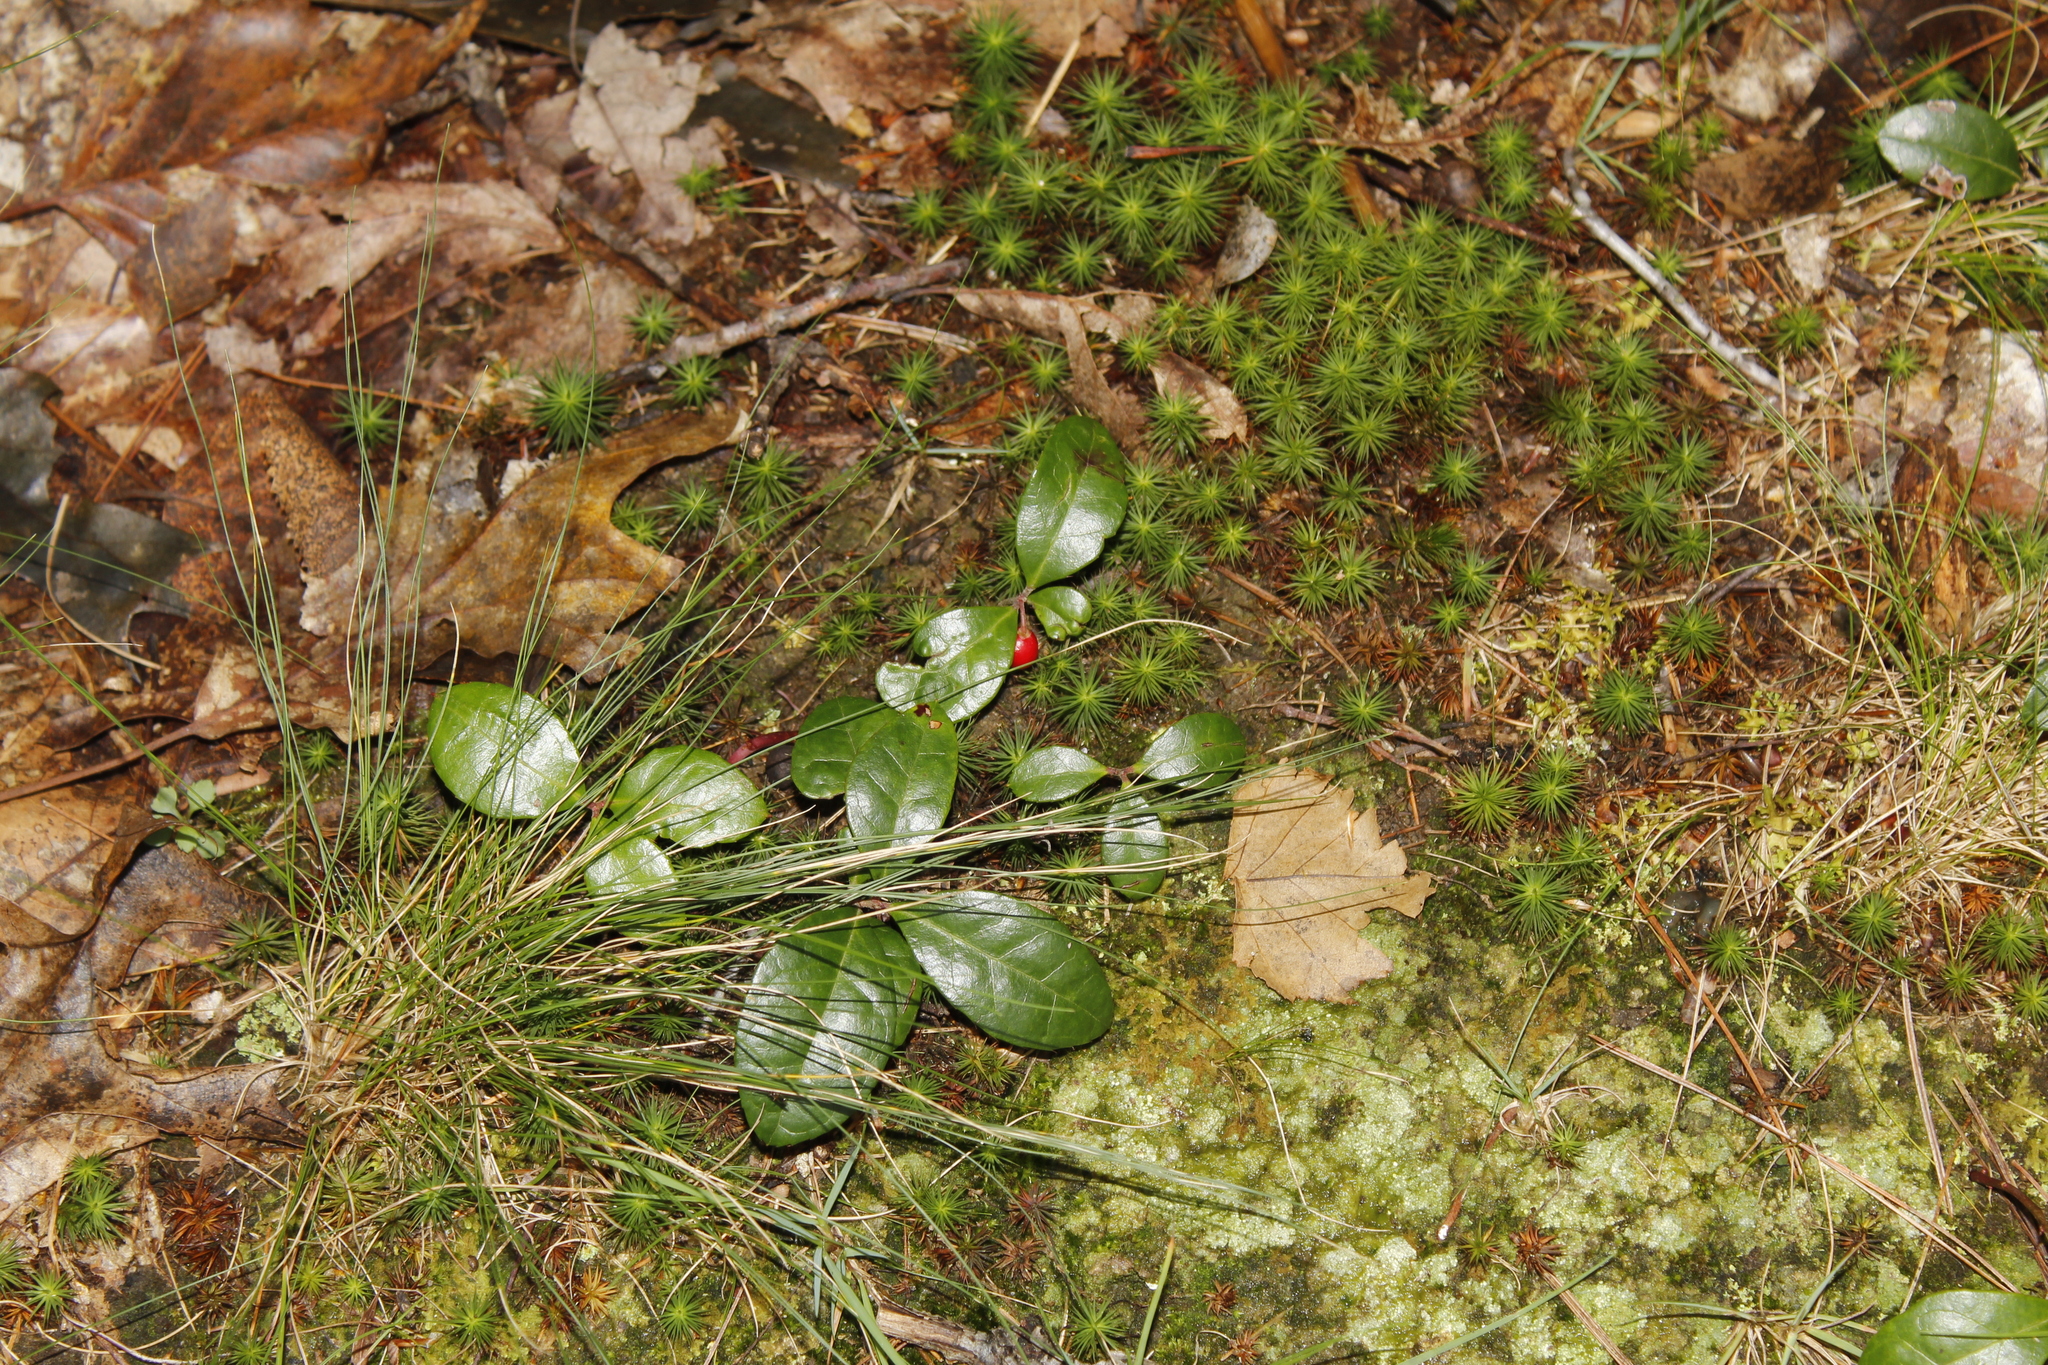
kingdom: Plantae
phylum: Tracheophyta
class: Magnoliopsida
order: Ericales
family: Ericaceae
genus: Gaultheria
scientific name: Gaultheria procumbens
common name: Checkerberry
